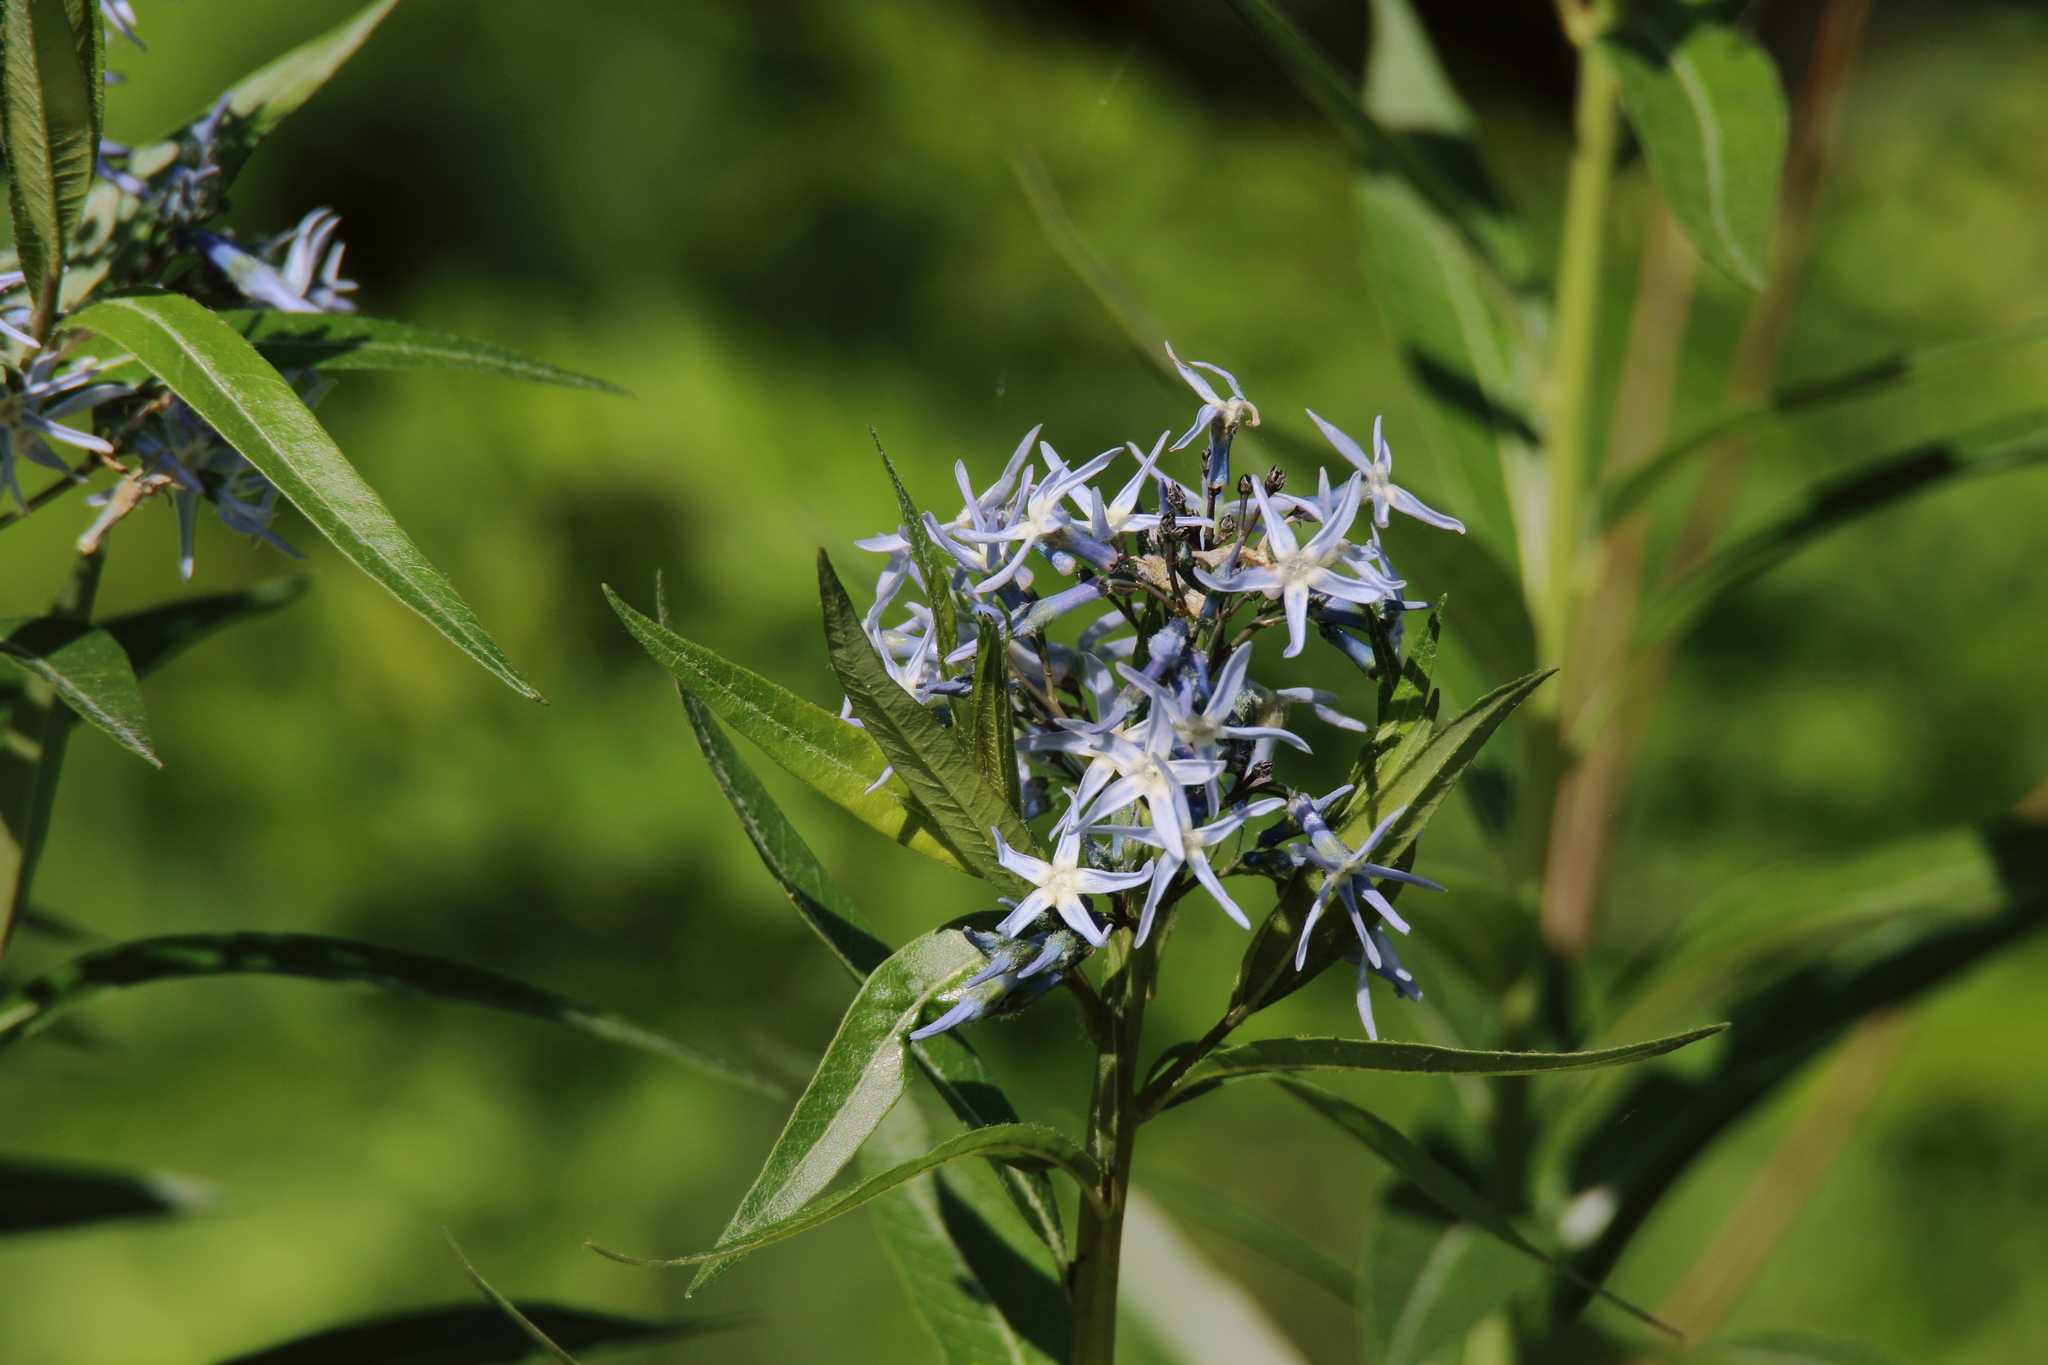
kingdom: Plantae
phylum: Tracheophyta
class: Magnoliopsida
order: Gentianales
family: Apocynaceae
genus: Amsonia
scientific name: Amsonia tabernaemontana
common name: Texas-star
